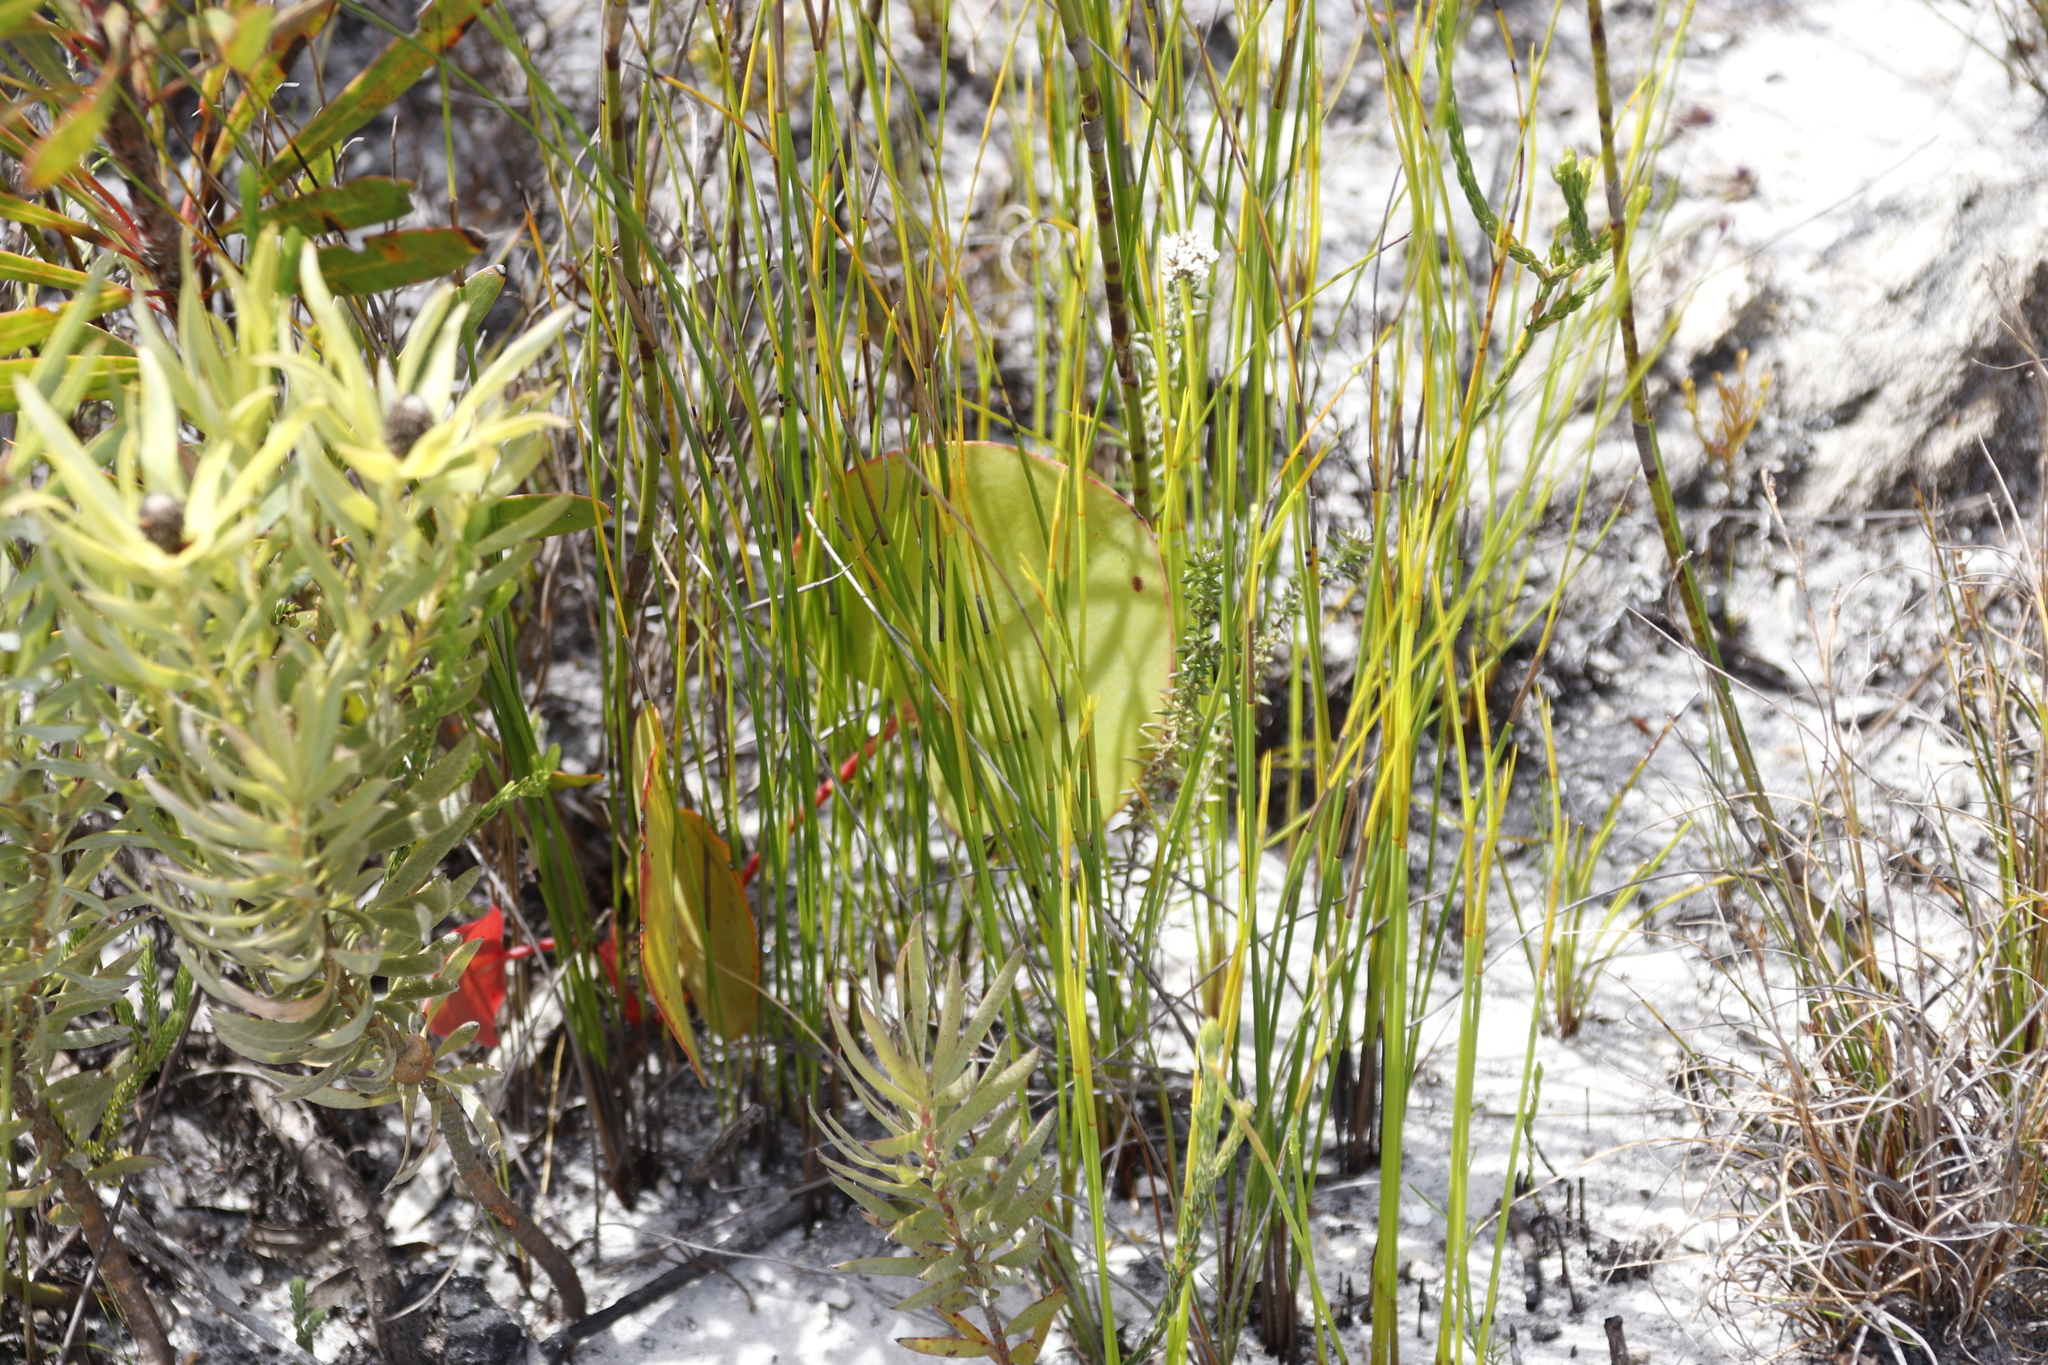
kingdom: Plantae
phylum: Tracheophyta
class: Magnoliopsida
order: Proteales
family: Proteaceae
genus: Leucadendron
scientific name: Leucadendron xanthoconus
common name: Sickle-leaf conebush
